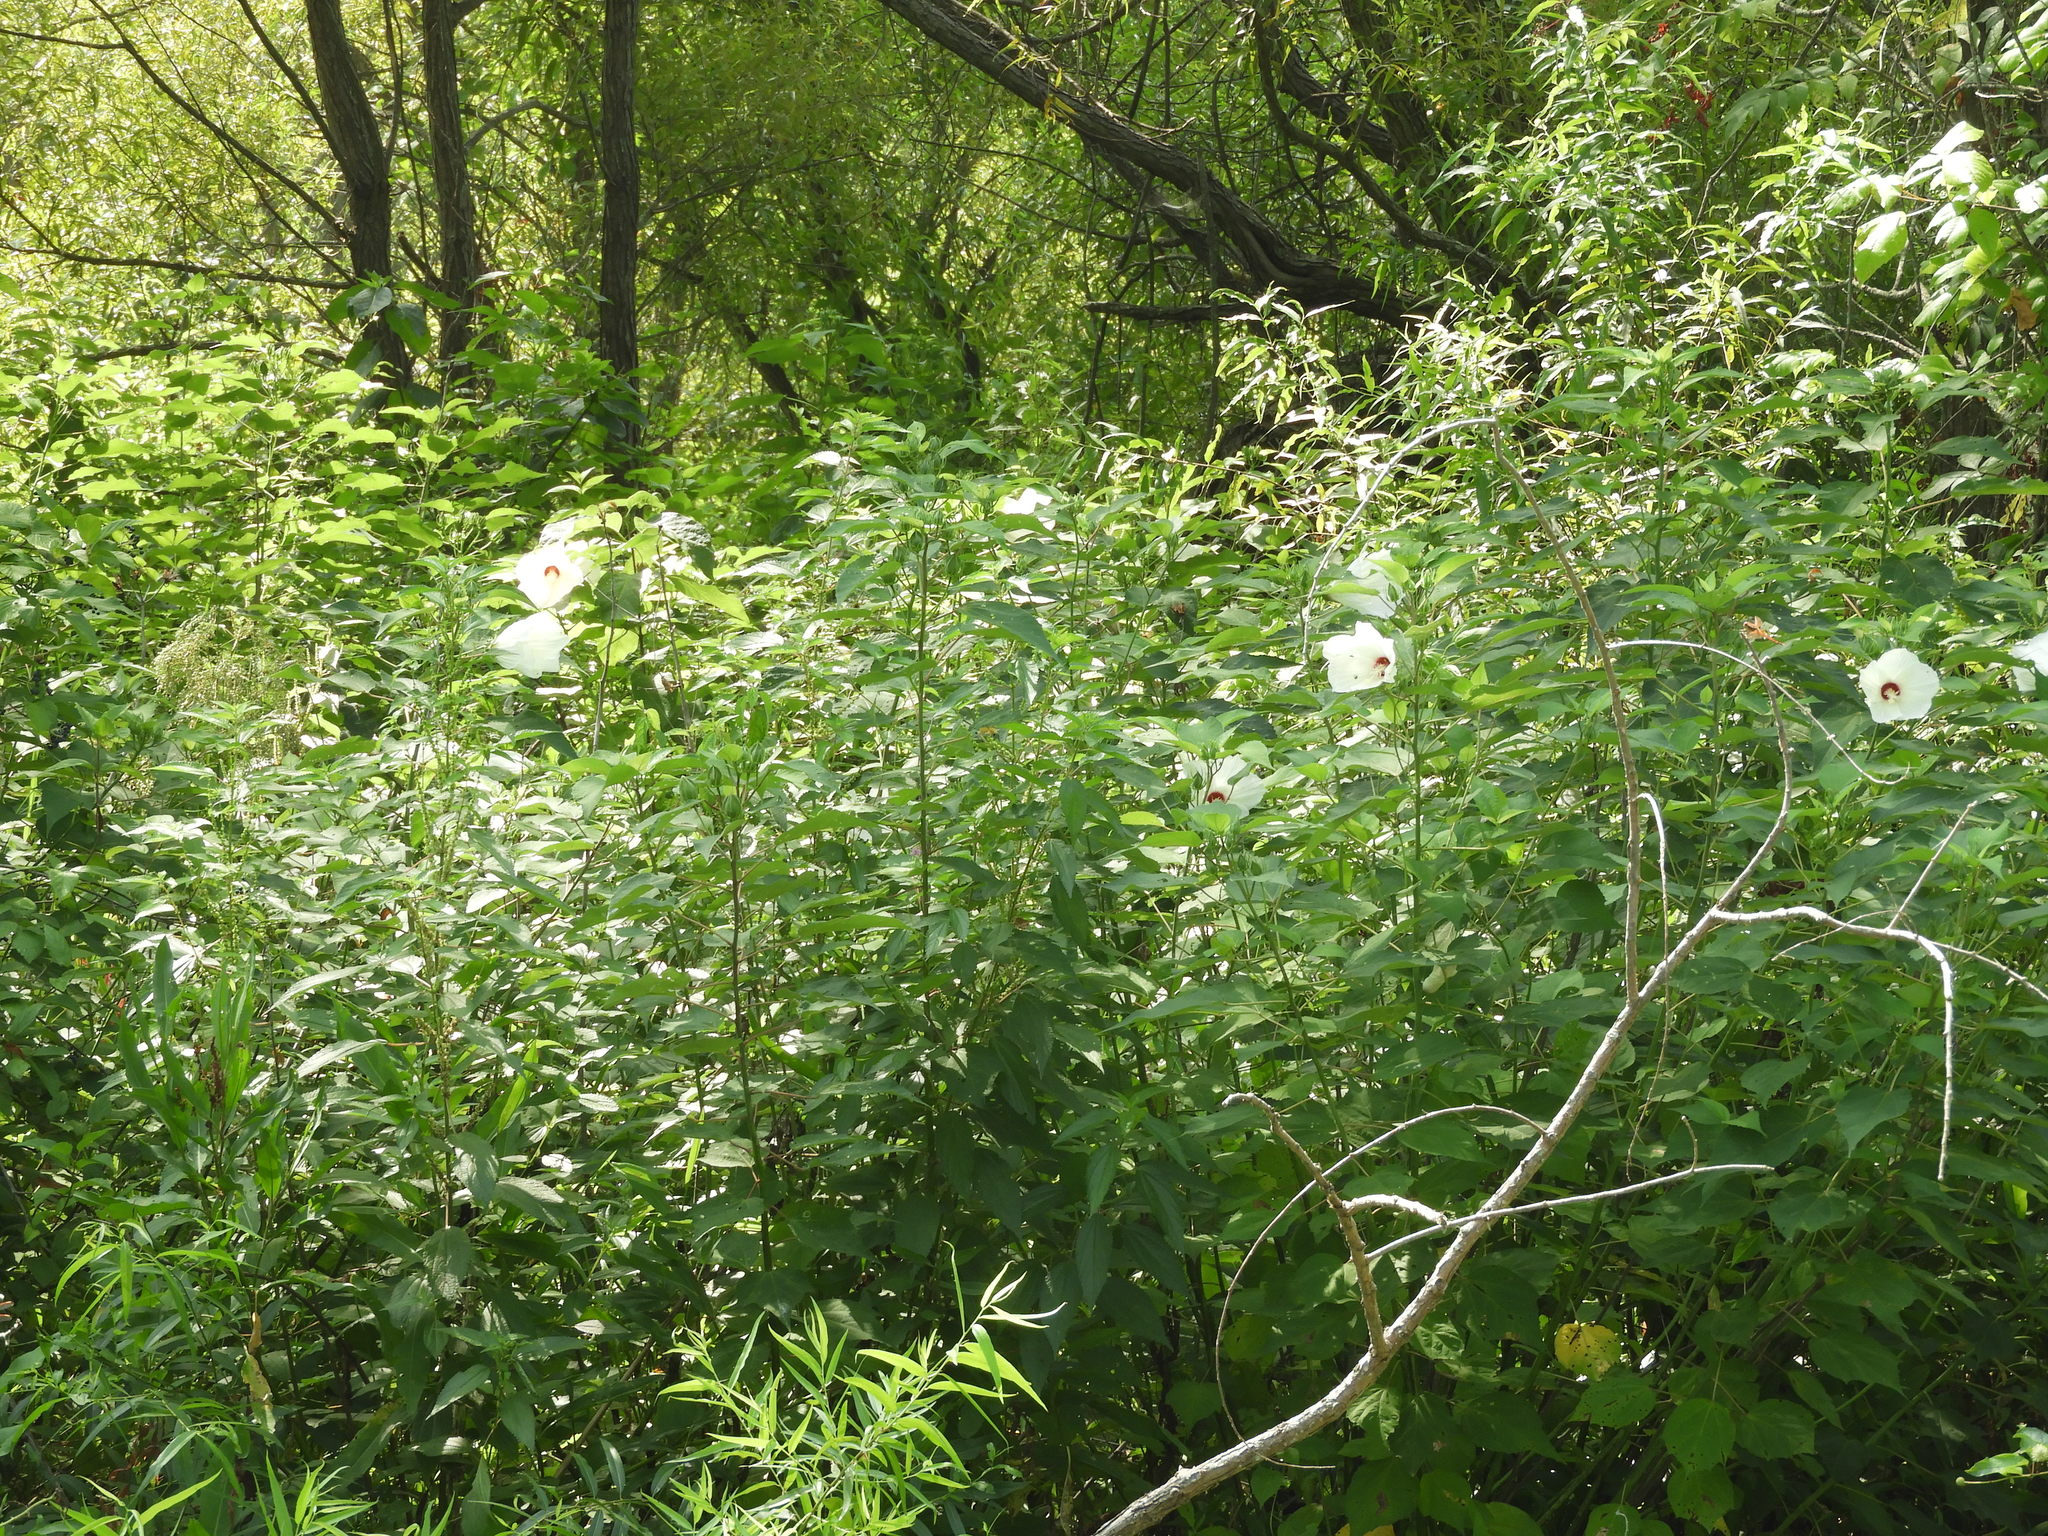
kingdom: Plantae
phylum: Tracheophyta
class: Magnoliopsida
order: Malvales
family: Malvaceae
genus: Hibiscus
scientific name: Hibiscus moscheutos
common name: Common rose-mallow
